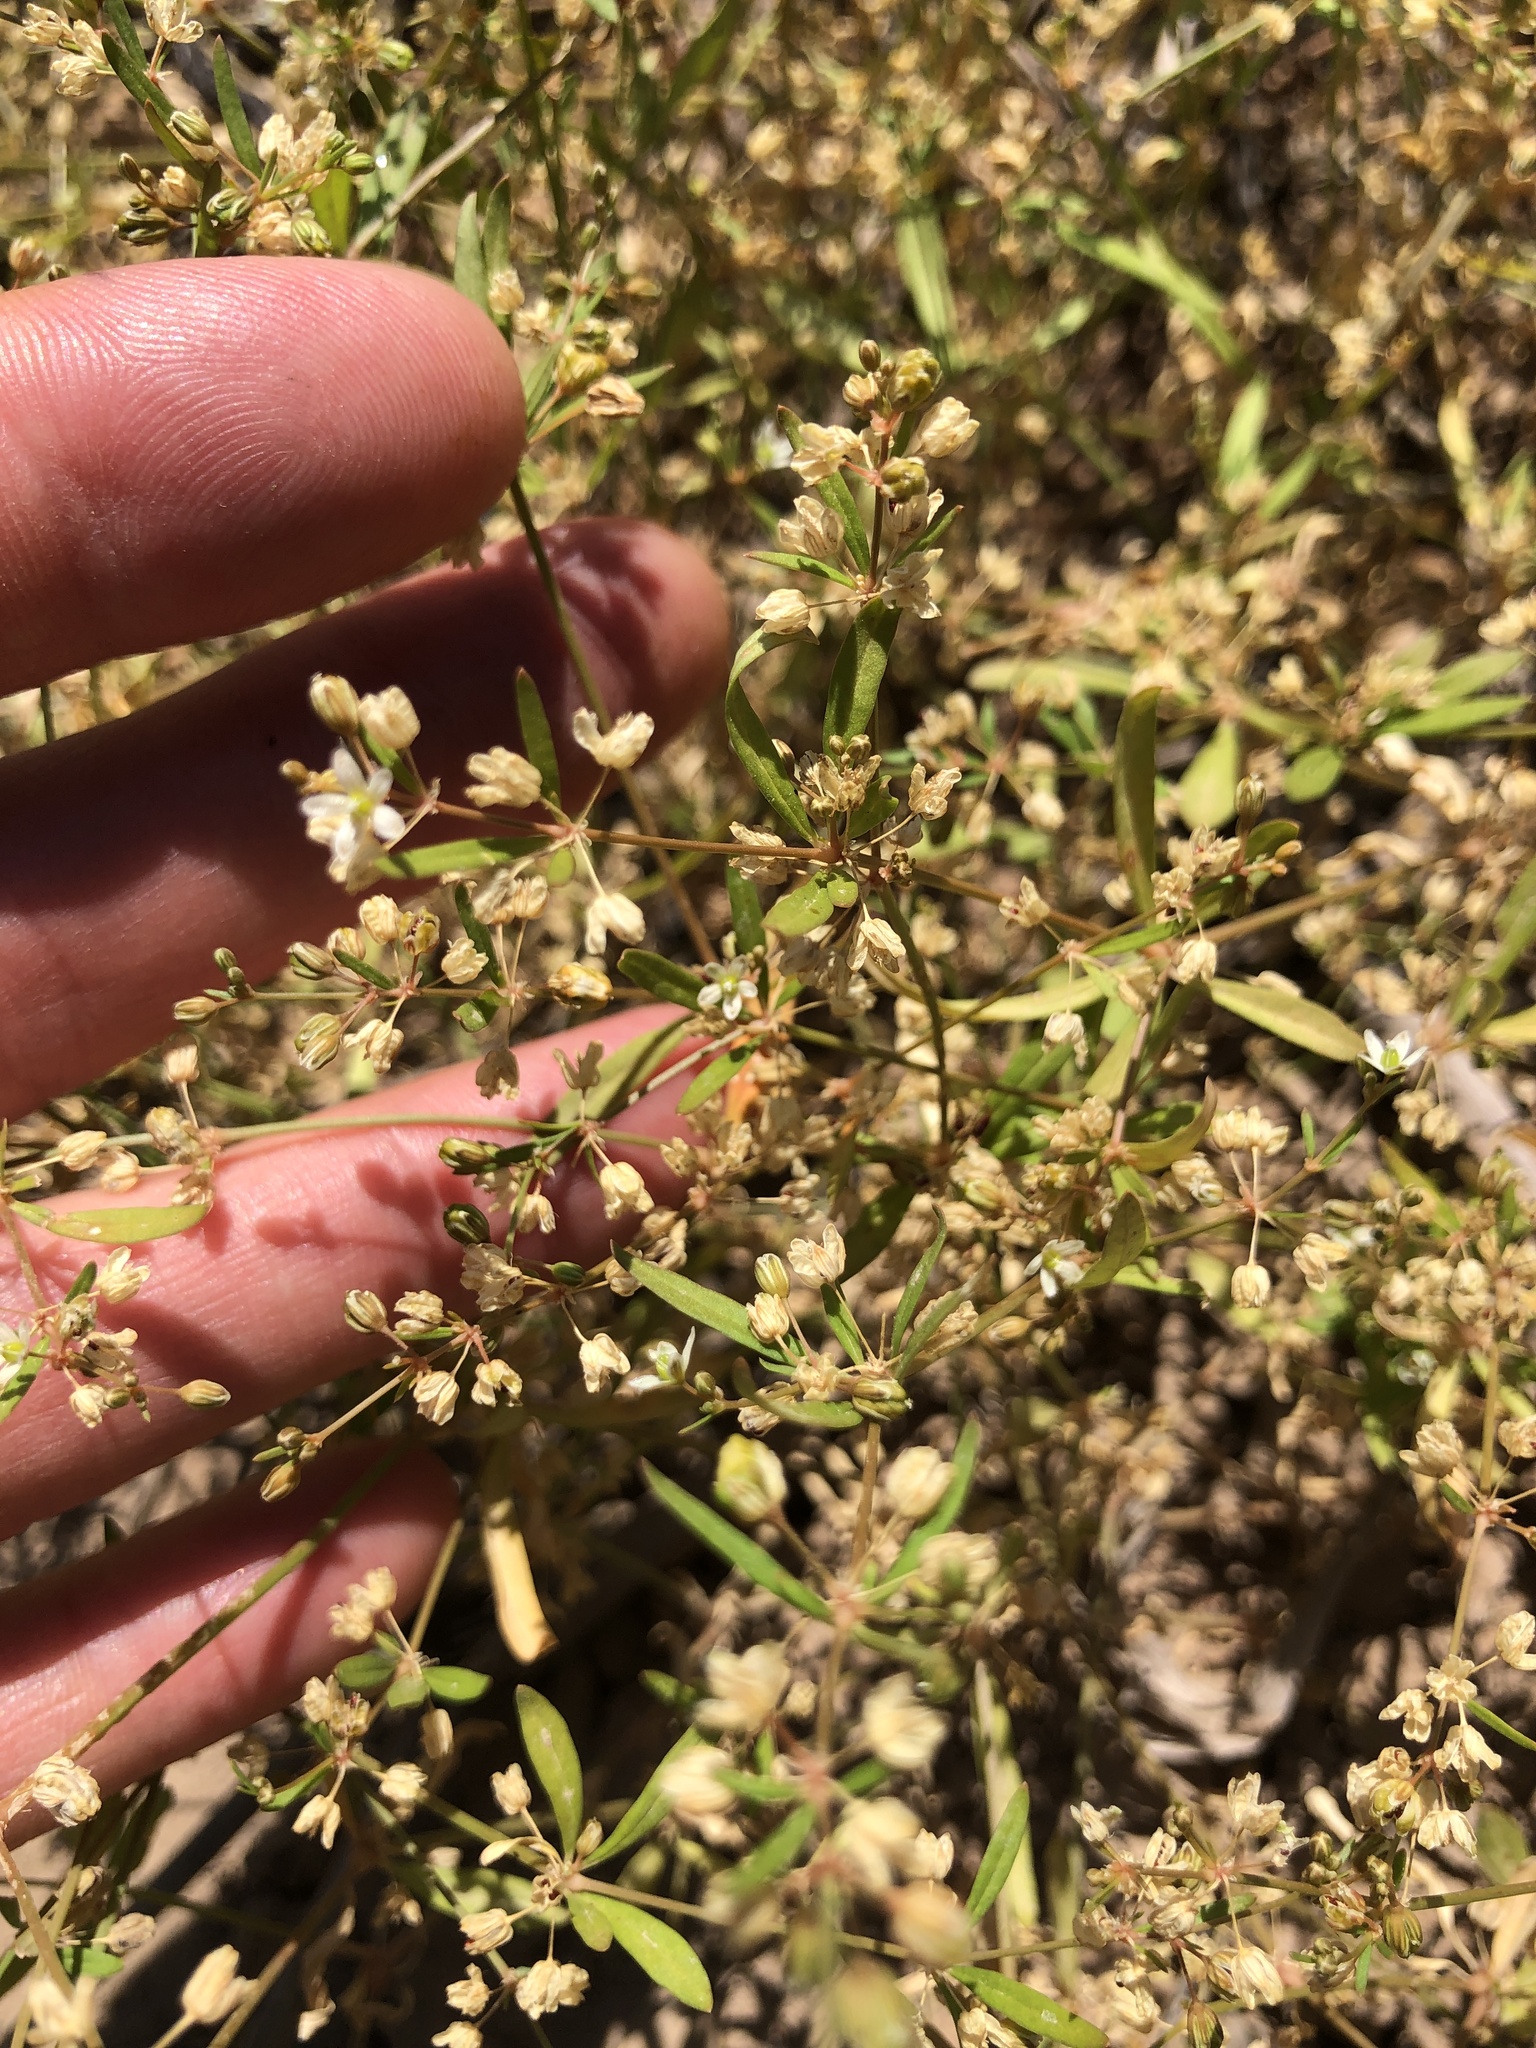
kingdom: Plantae
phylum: Tracheophyta
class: Magnoliopsida
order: Caryophyllales
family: Molluginaceae
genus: Mollugo
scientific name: Mollugo verticillata
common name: Green carpetweed
